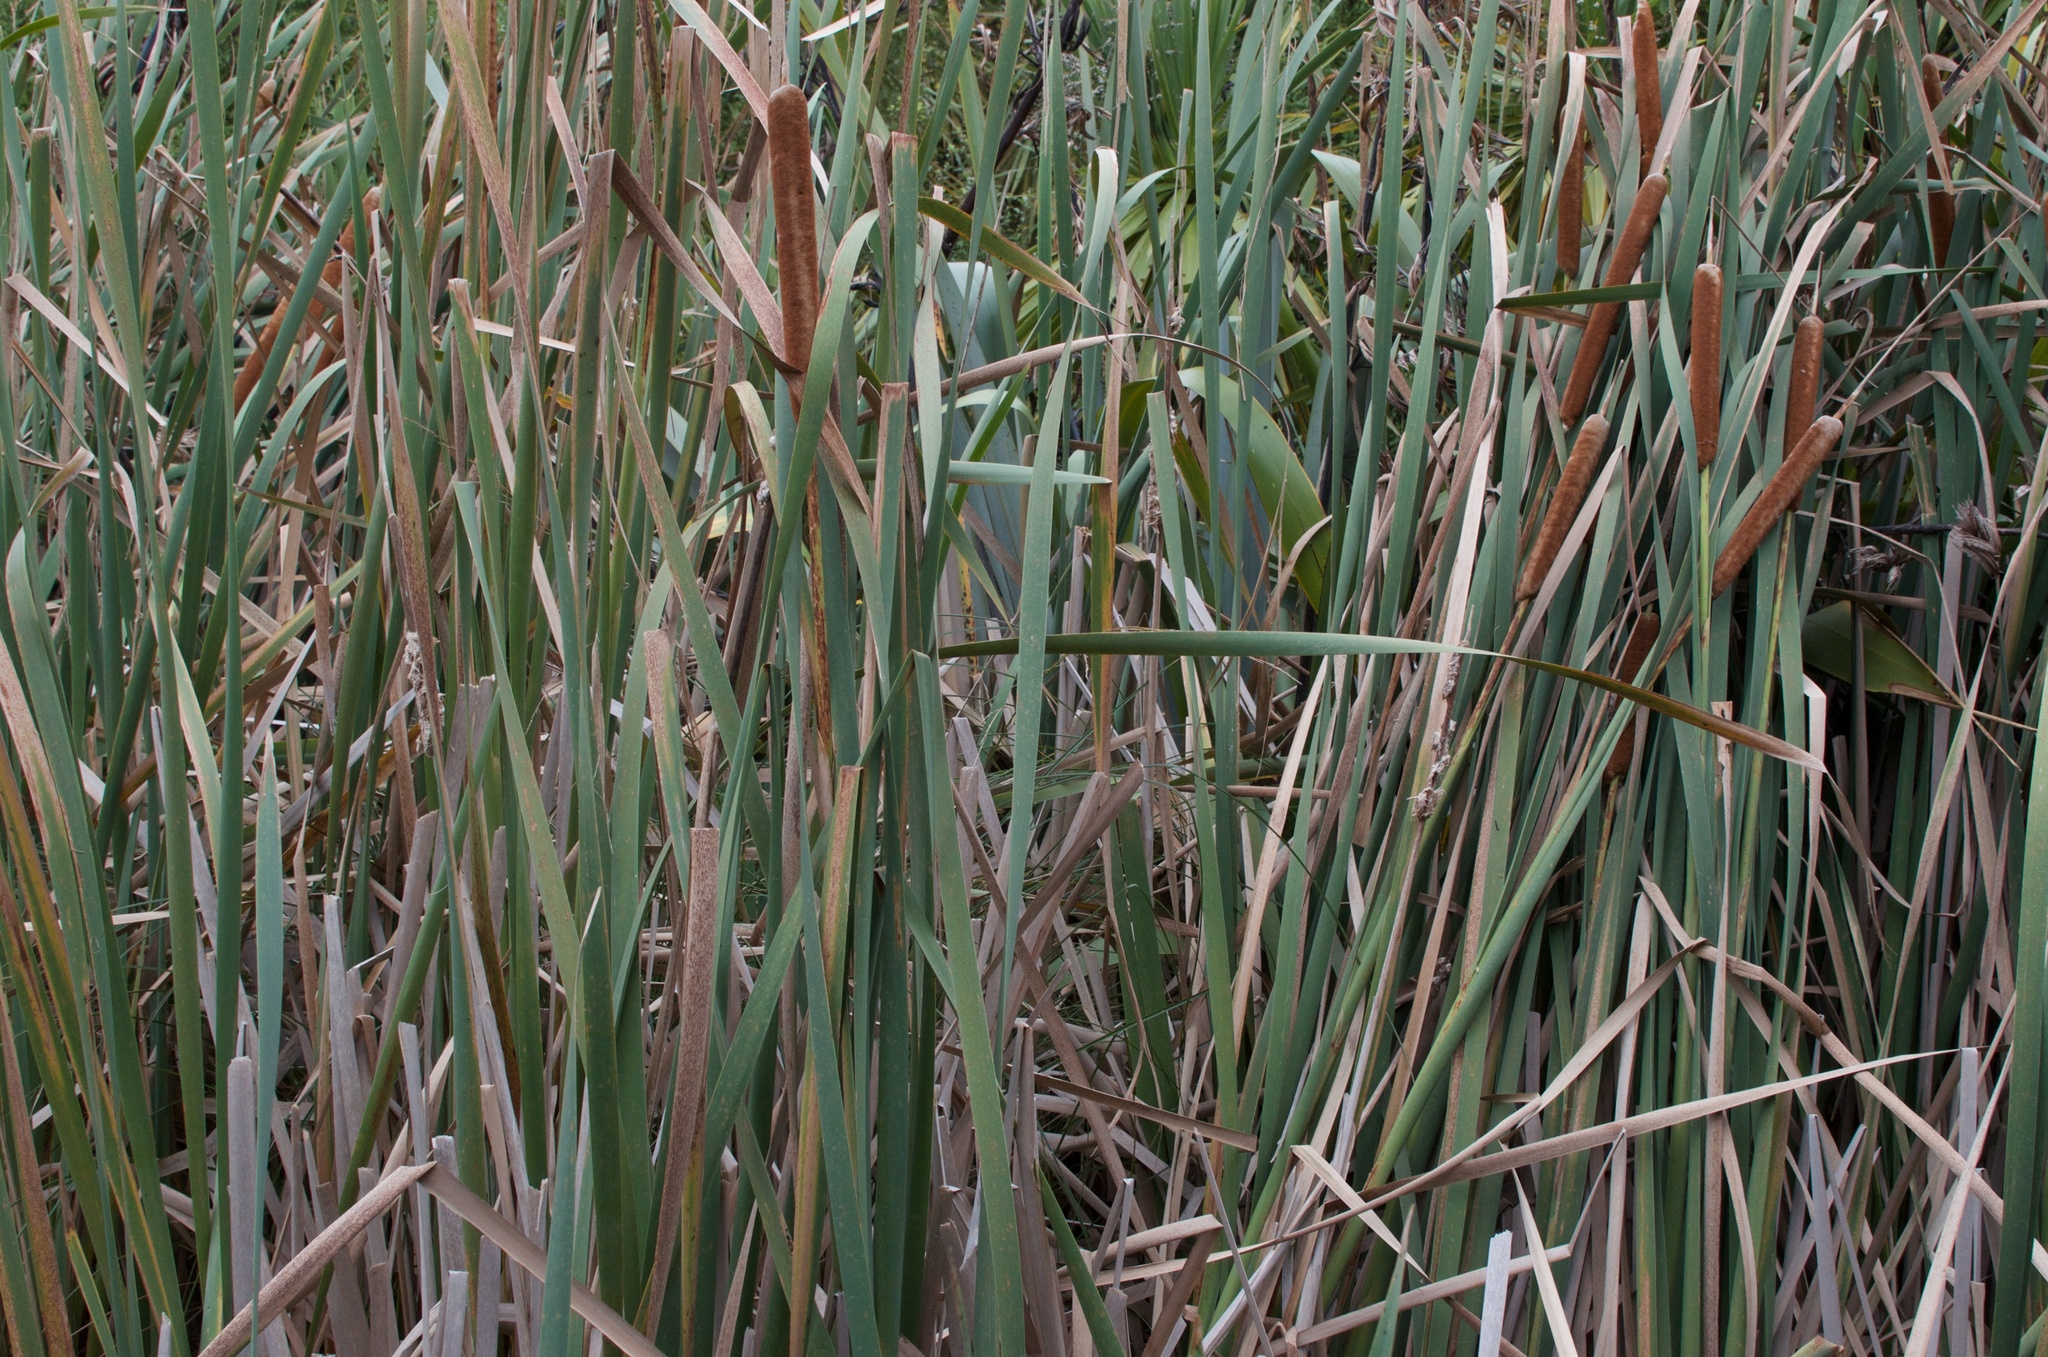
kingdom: Plantae
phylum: Tracheophyta
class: Liliopsida
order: Poales
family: Typhaceae
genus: Typha
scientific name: Typha orientalis
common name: Bullrush
